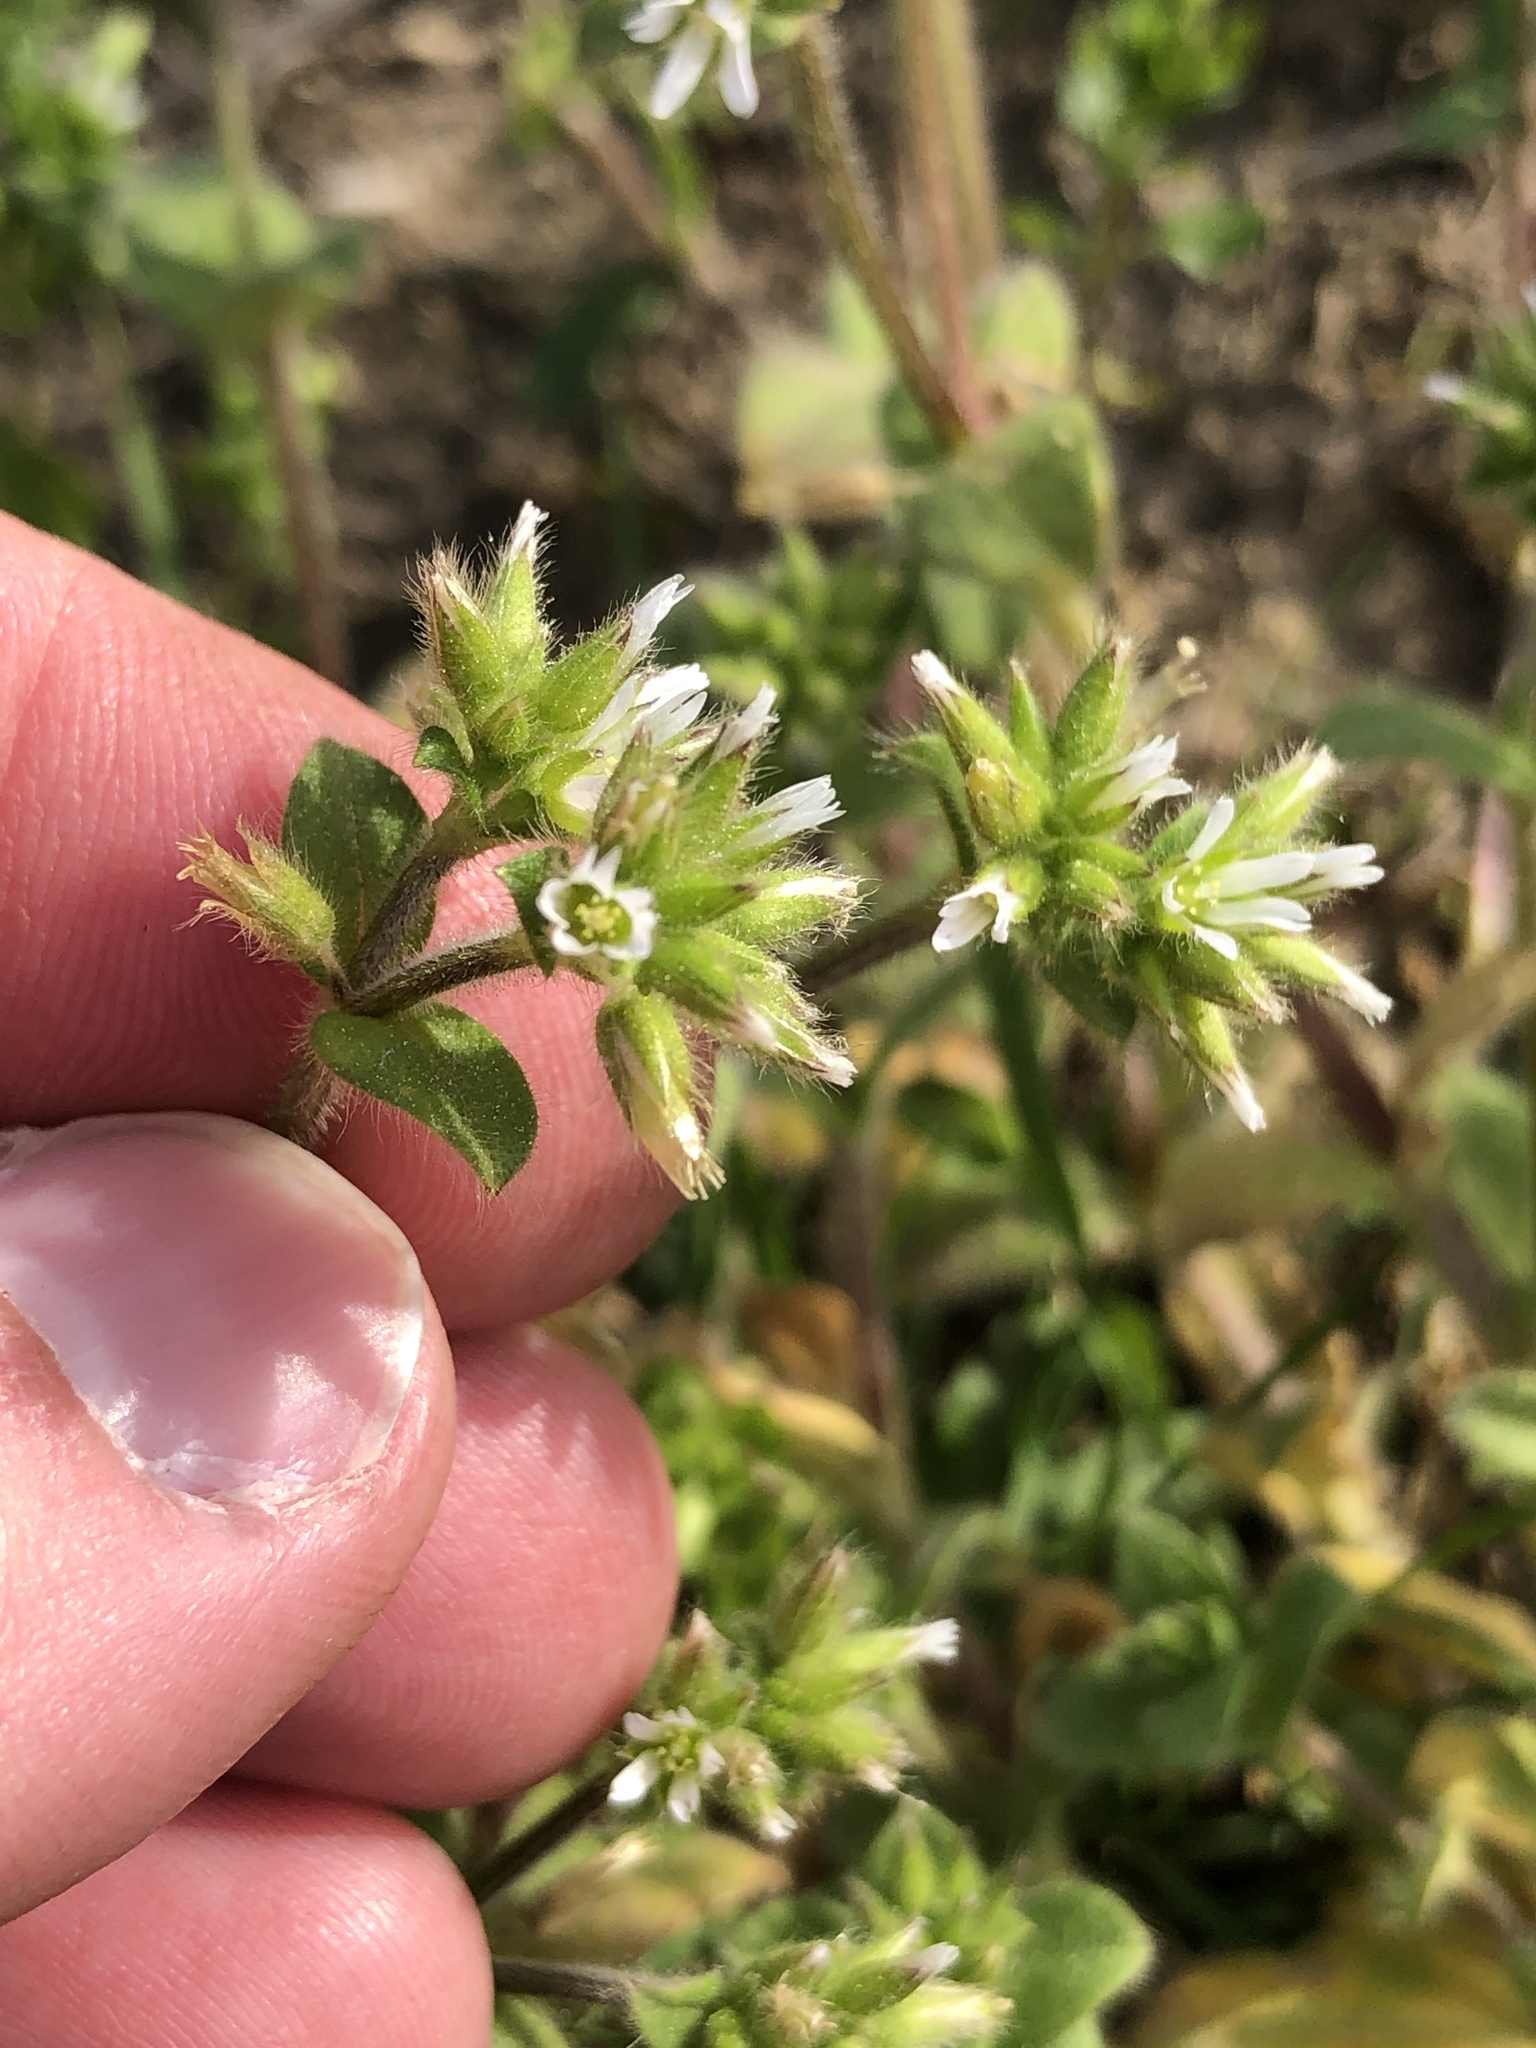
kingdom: Plantae
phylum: Tracheophyta
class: Magnoliopsida
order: Caryophyllales
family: Caryophyllaceae
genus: Cerastium
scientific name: Cerastium glomeratum
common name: Sticky chickweed
